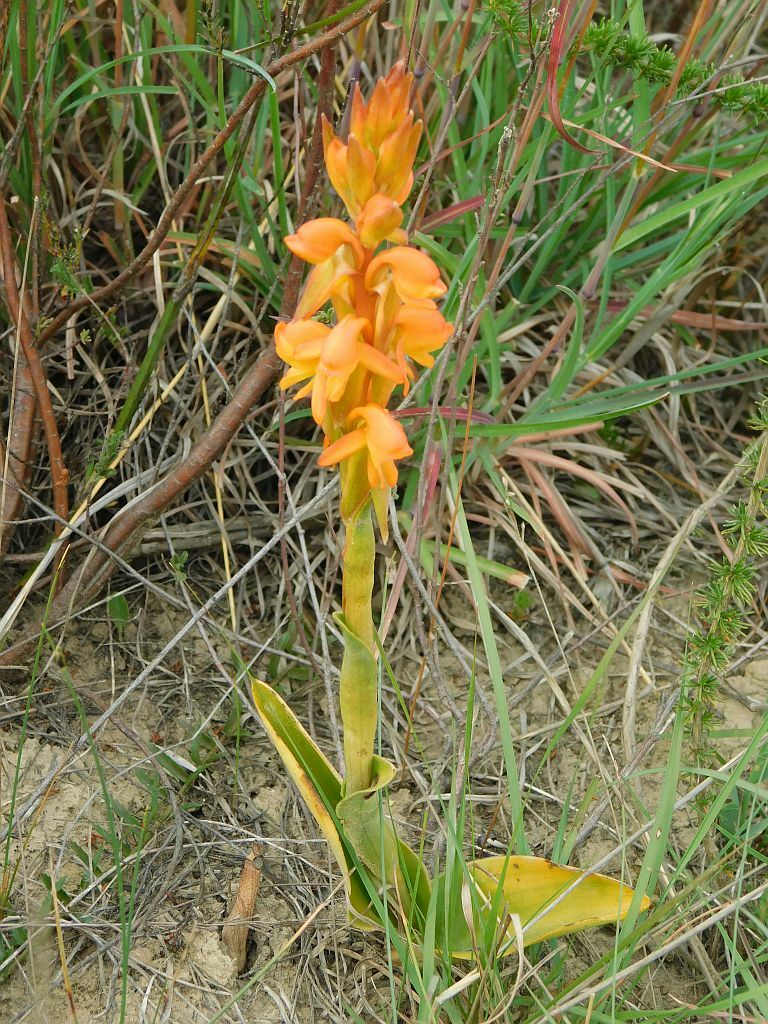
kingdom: Plantae
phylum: Tracheophyta
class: Liliopsida
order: Asparagales
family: Orchidaceae
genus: Satyrium
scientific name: Satyrium coriifolium
